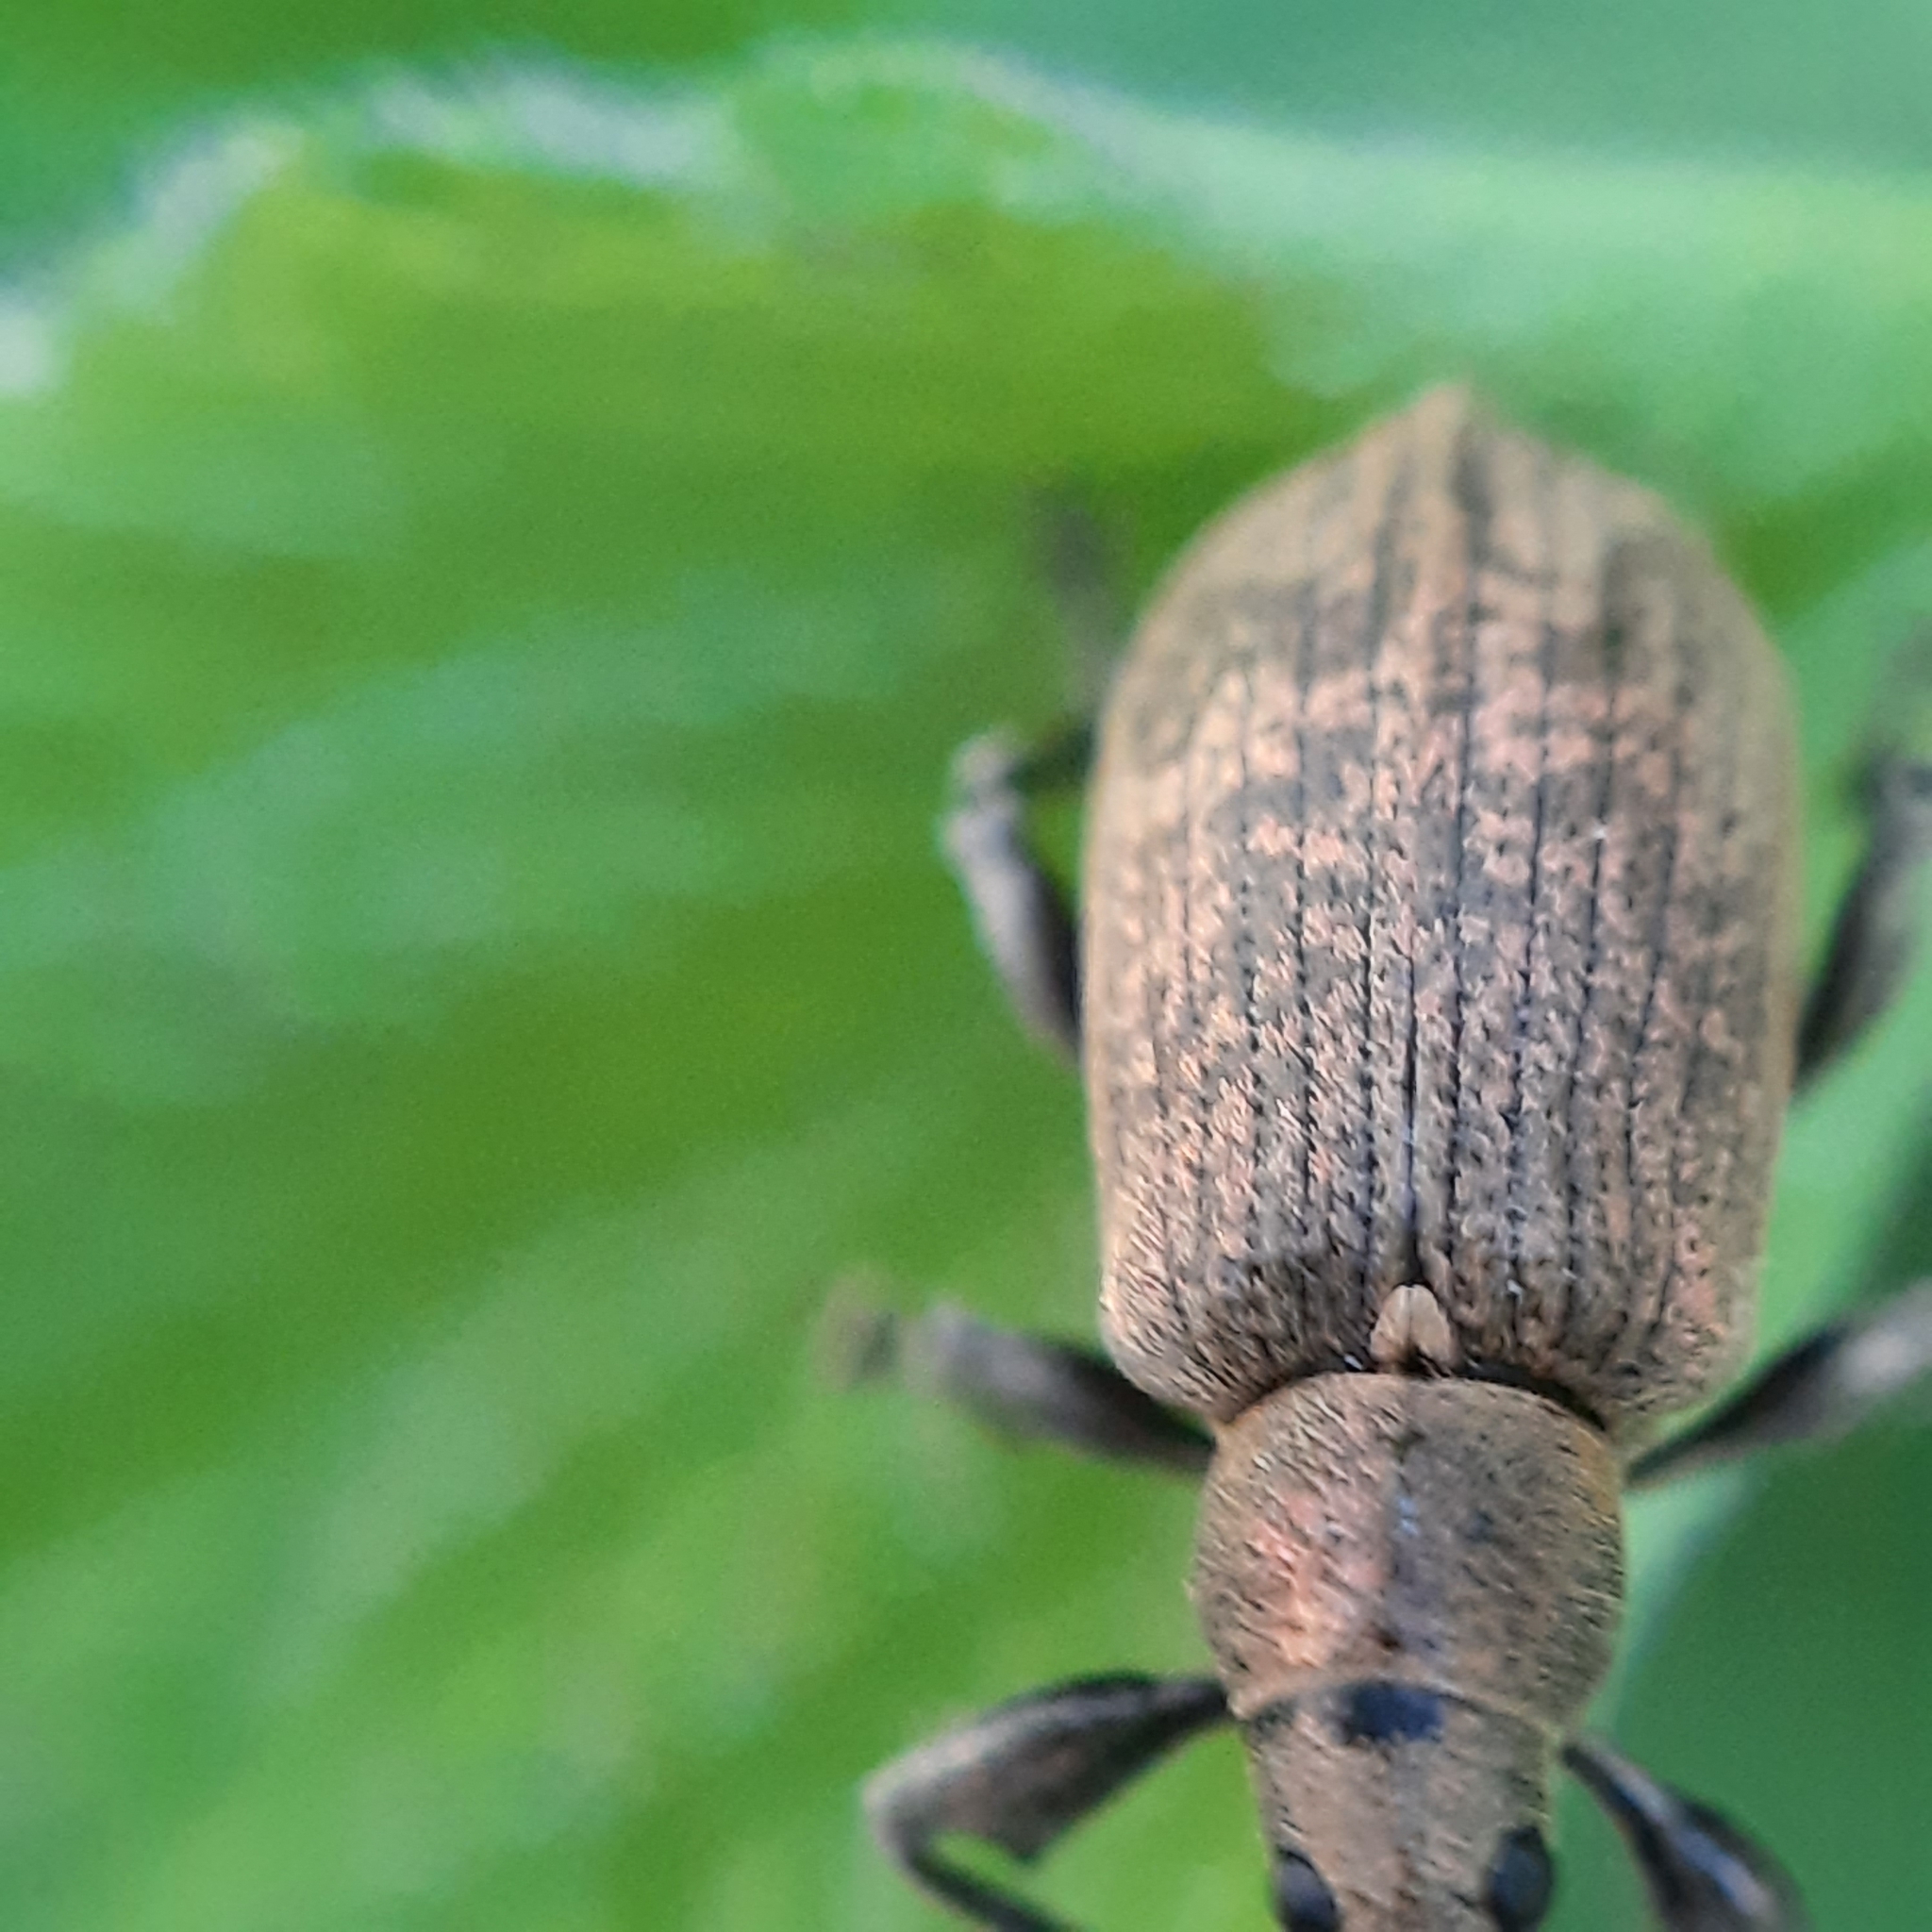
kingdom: Animalia
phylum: Arthropoda
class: Insecta
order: Coleoptera
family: Curculionidae
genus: Phyllobius
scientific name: Phyllobius pomaceus
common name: Green nettle weevil
